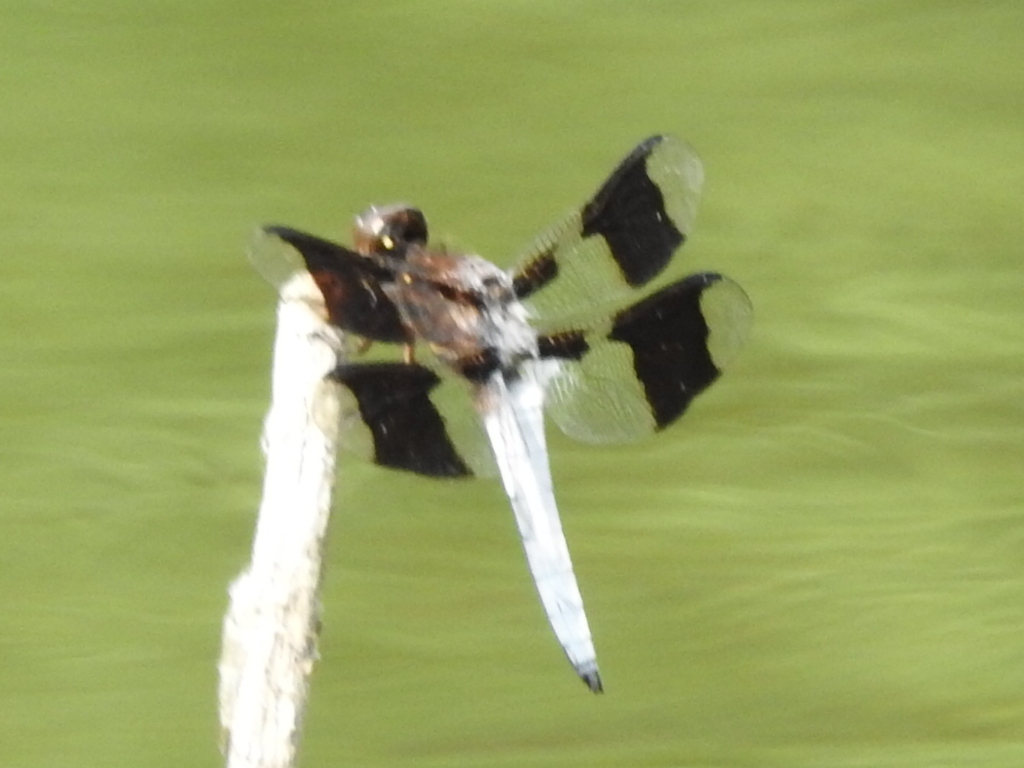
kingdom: Animalia
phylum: Arthropoda
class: Insecta
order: Odonata
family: Libellulidae
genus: Plathemis
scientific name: Plathemis lydia
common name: Common whitetail
